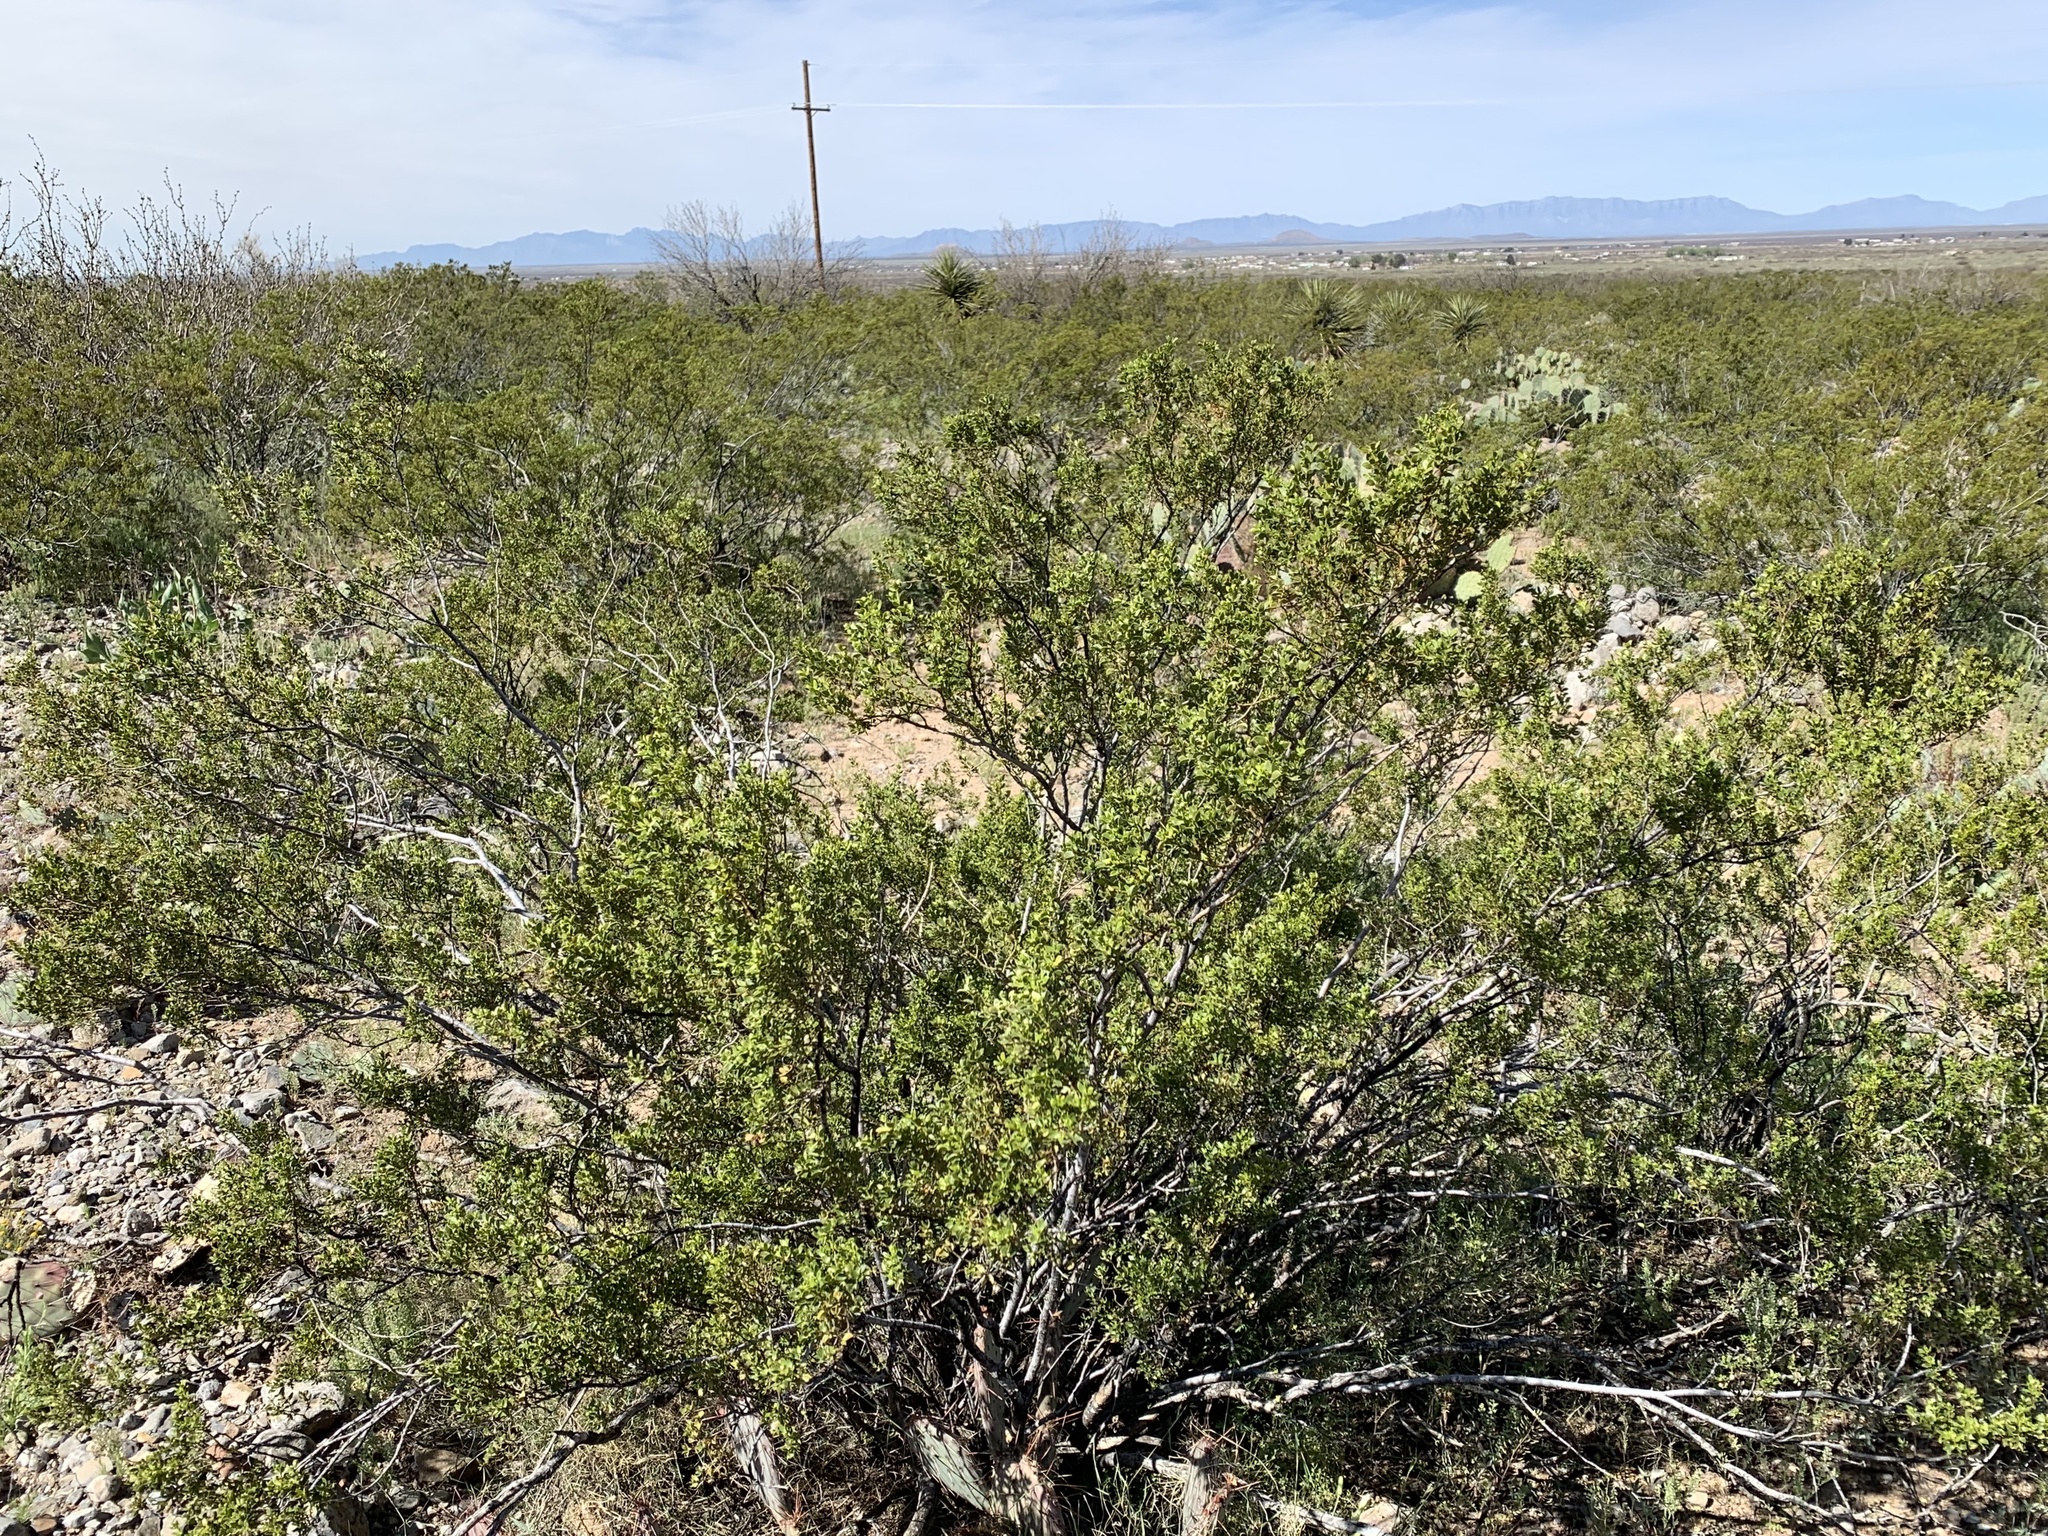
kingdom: Plantae
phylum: Tracheophyta
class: Magnoliopsida
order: Zygophyllales
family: Zygophyllaceae
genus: Larrea
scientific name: Larrea tridentata
